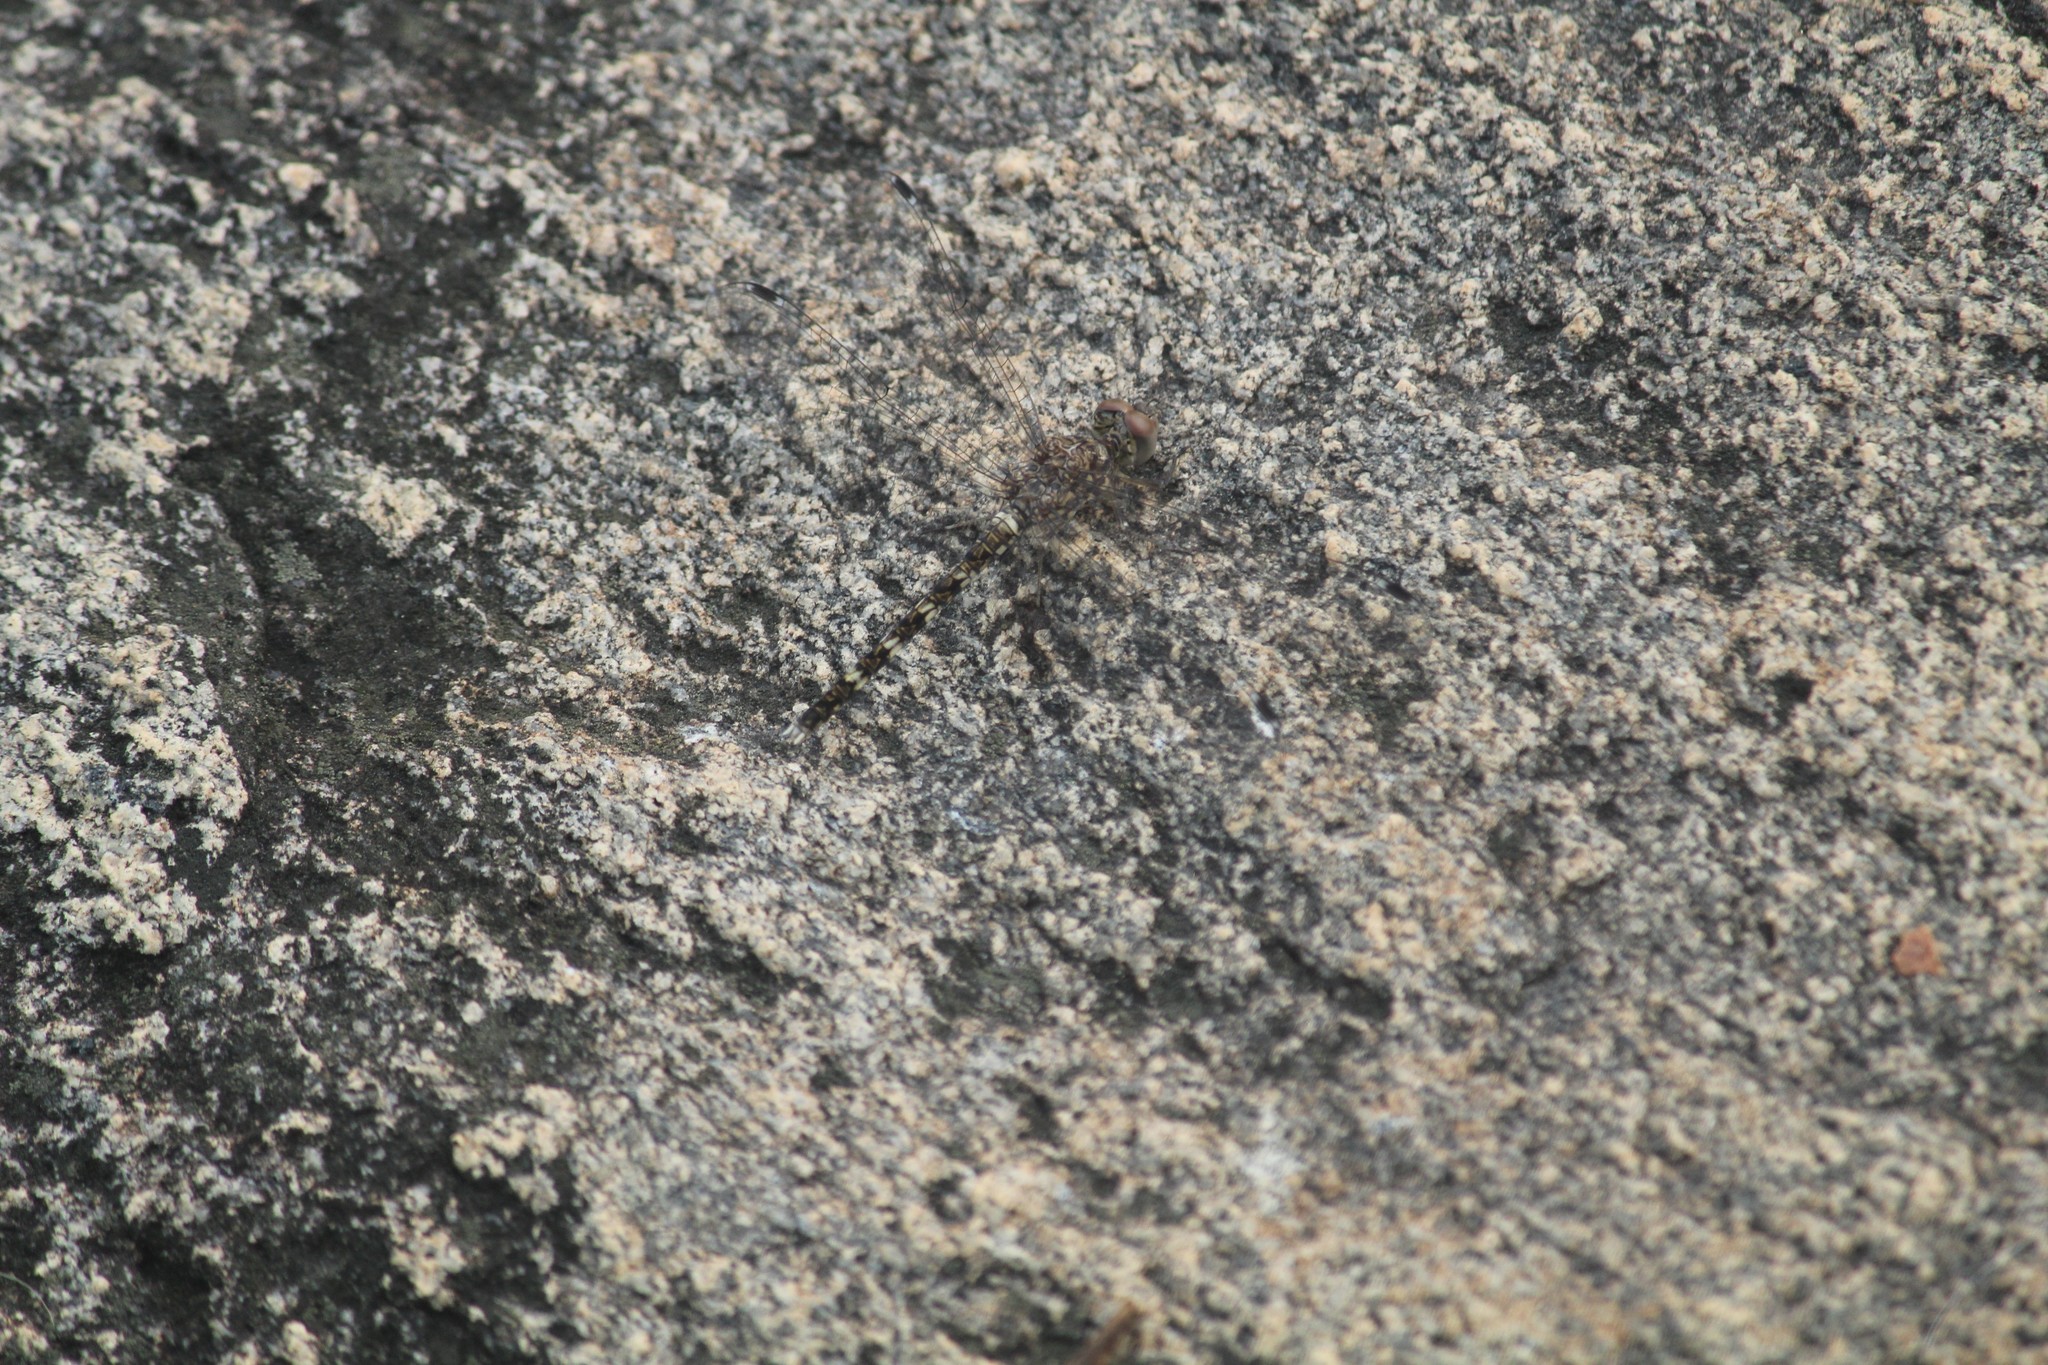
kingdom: Animalia
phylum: Arthropoda
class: Insecta
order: Odonata
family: Libellulidae
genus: Bradinopyga
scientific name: Bradinopyga geminata
